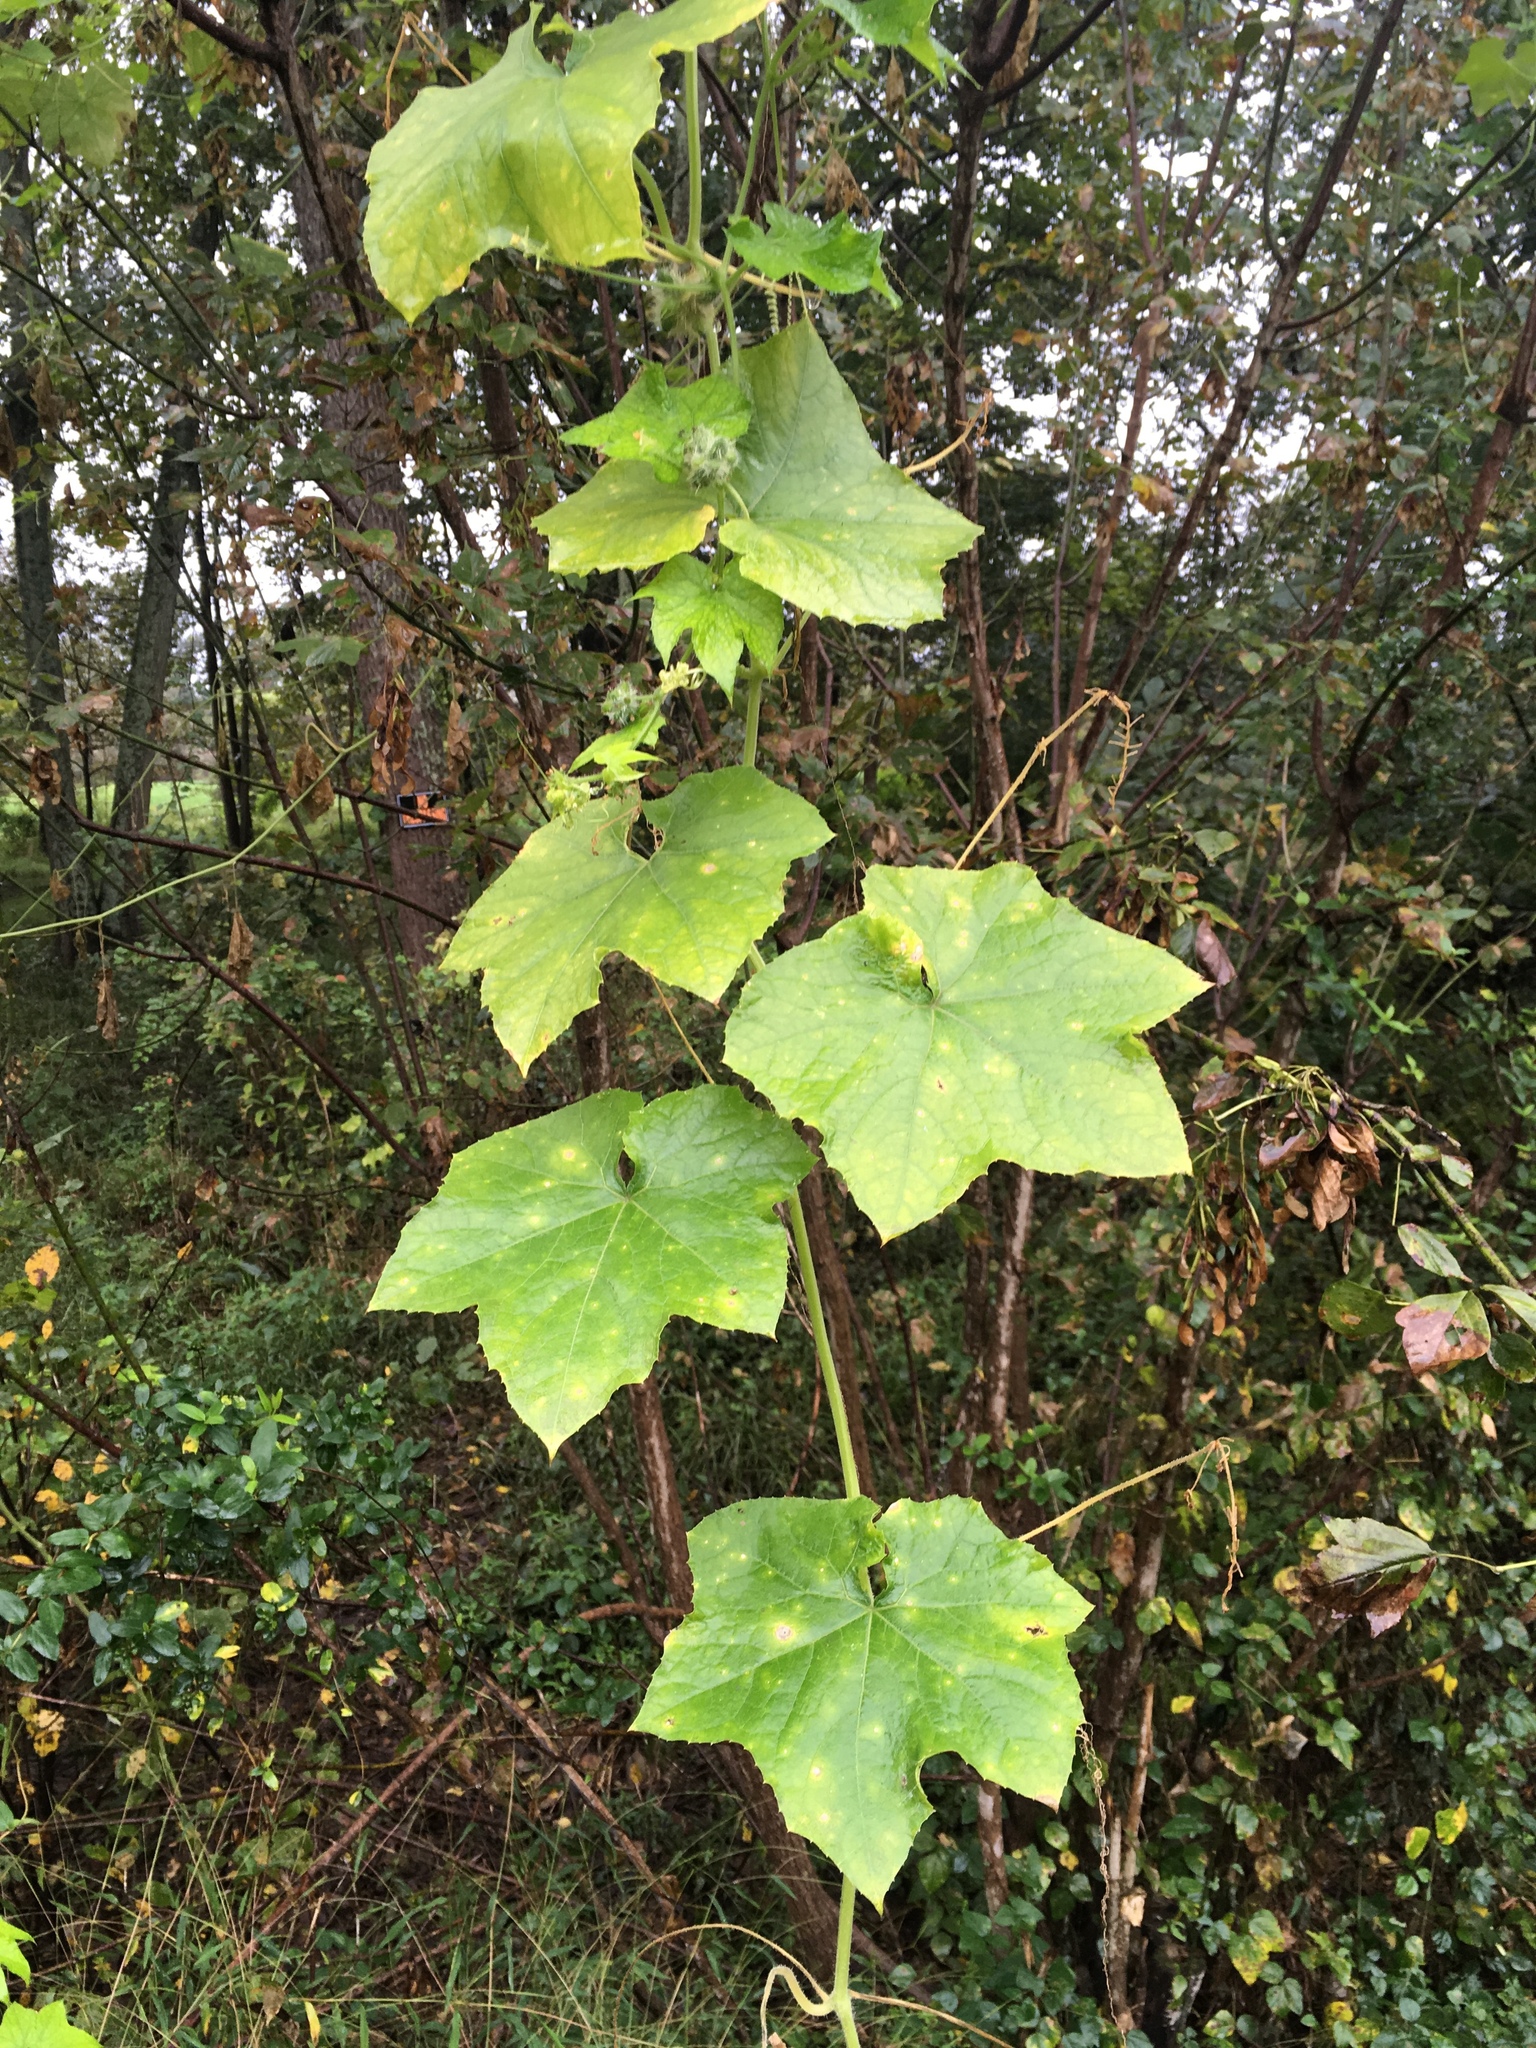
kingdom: Plantae
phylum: Tracheophyta
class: Magnoliopsida
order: Cucurbitales
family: Cucurbitaceae
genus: Sicyos
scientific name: Sicyos angulatus
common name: Angled burr cucumber
